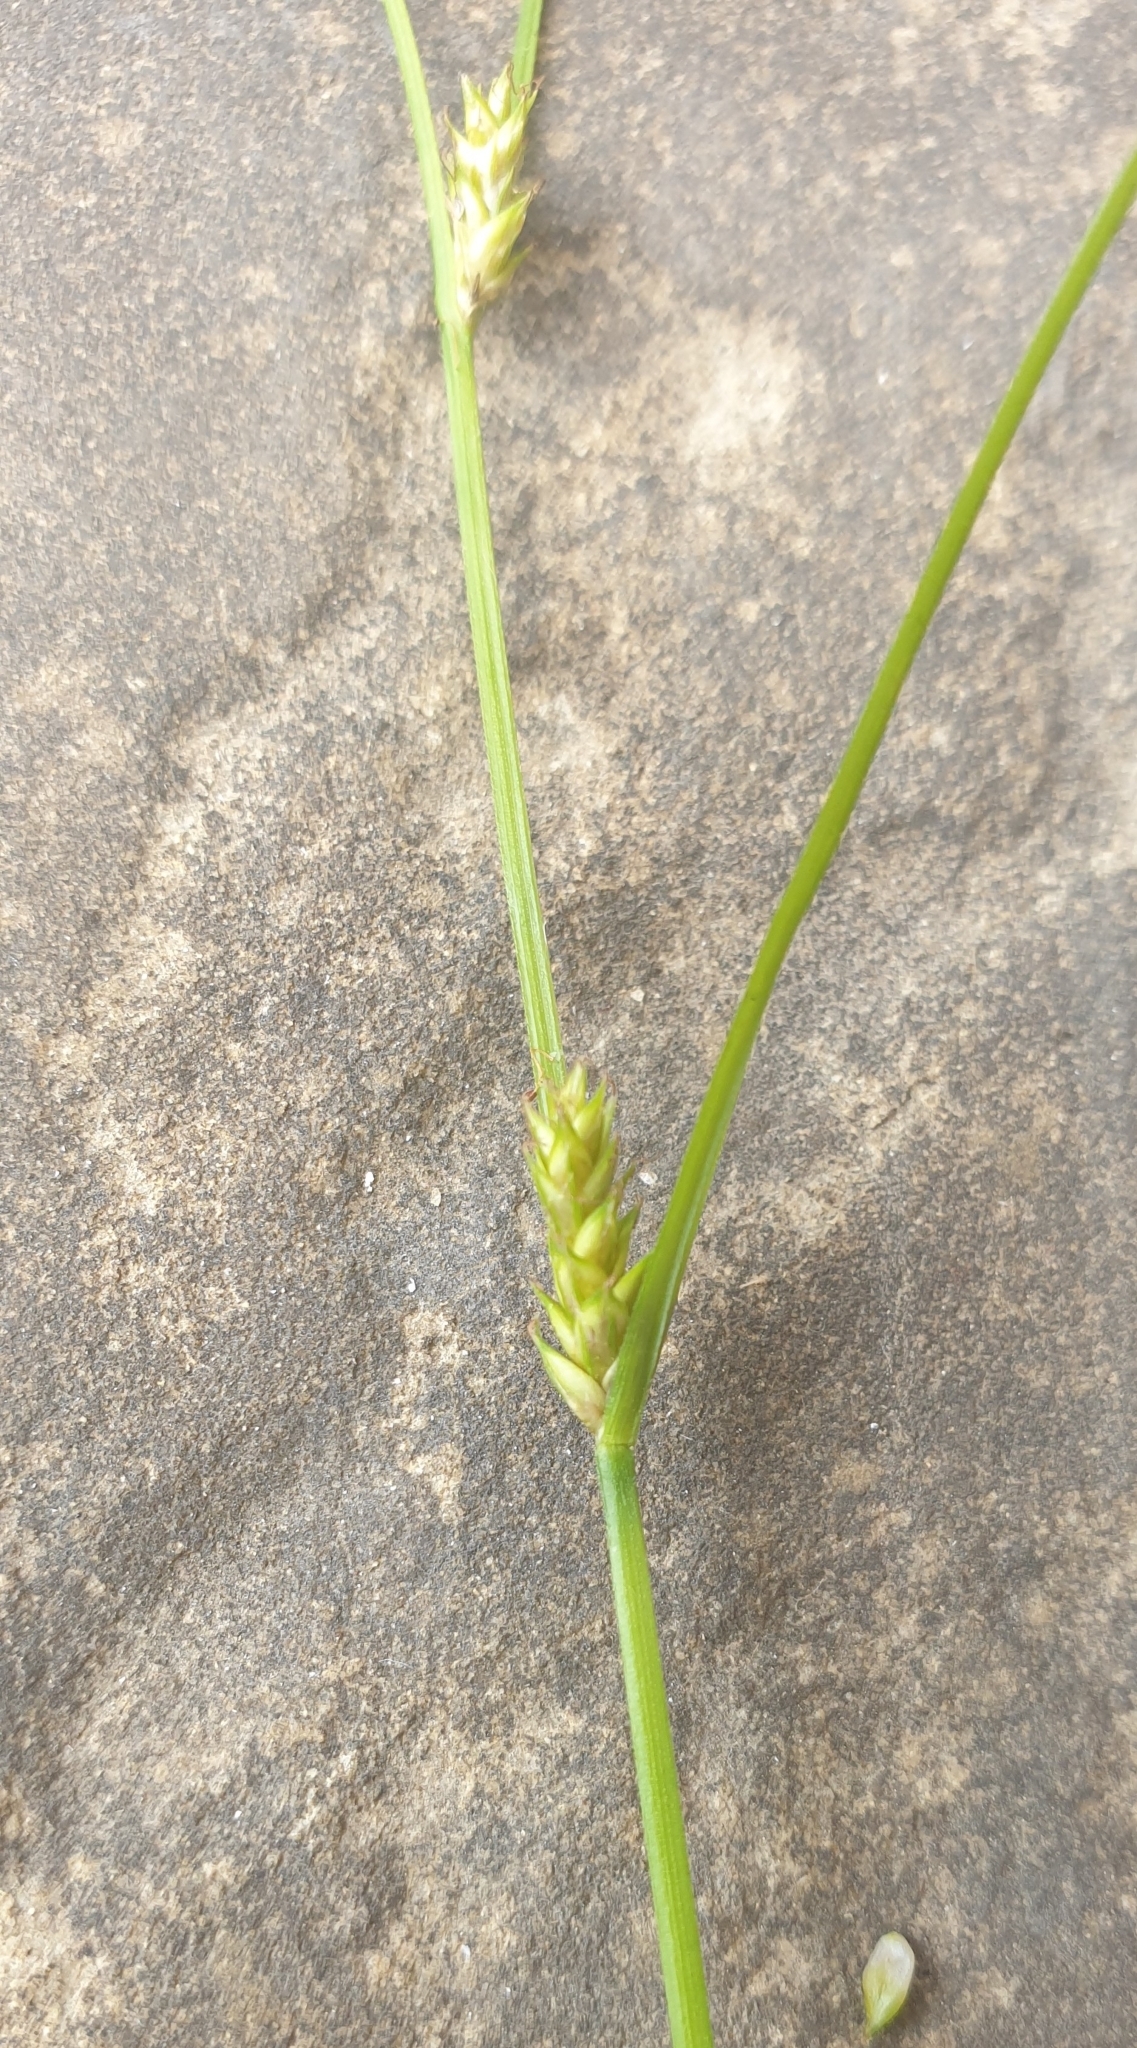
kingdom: Plantae
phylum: Tracheophyta
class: Liliopsida
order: Poales
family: Cyperaceae
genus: Carex
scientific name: Carex remota
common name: Remote sedge
